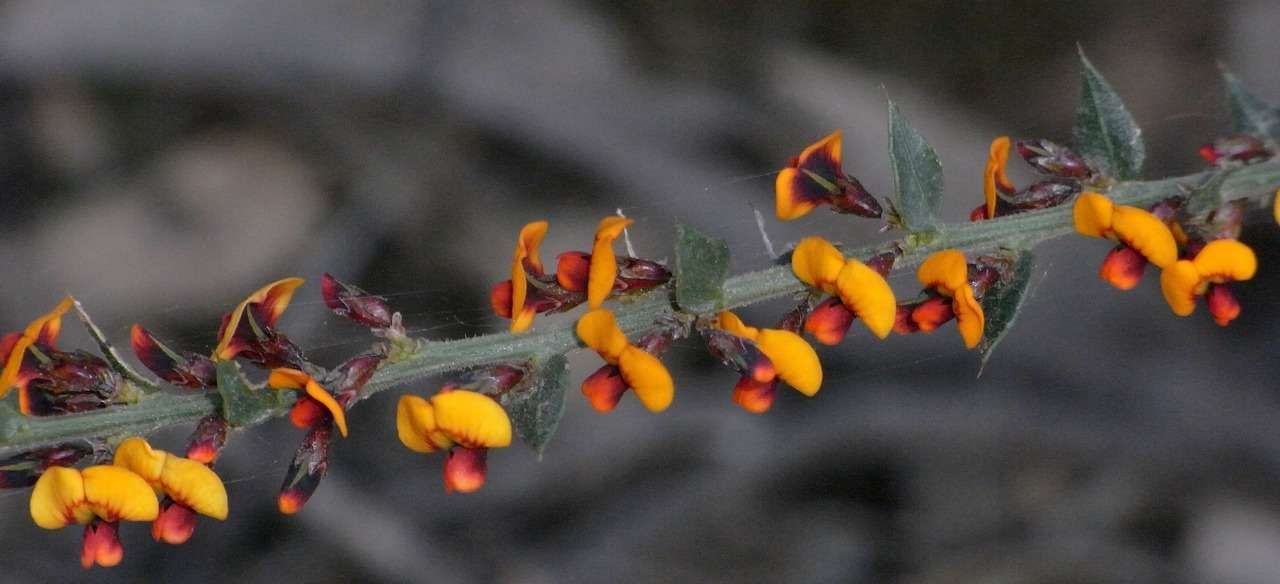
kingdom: Plantae
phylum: Tracheophyta
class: Magnoliopsida
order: Fabales
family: Fabaceae
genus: Daviesia
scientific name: Daviesia ulicifolia
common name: Gorse bitter-pea
